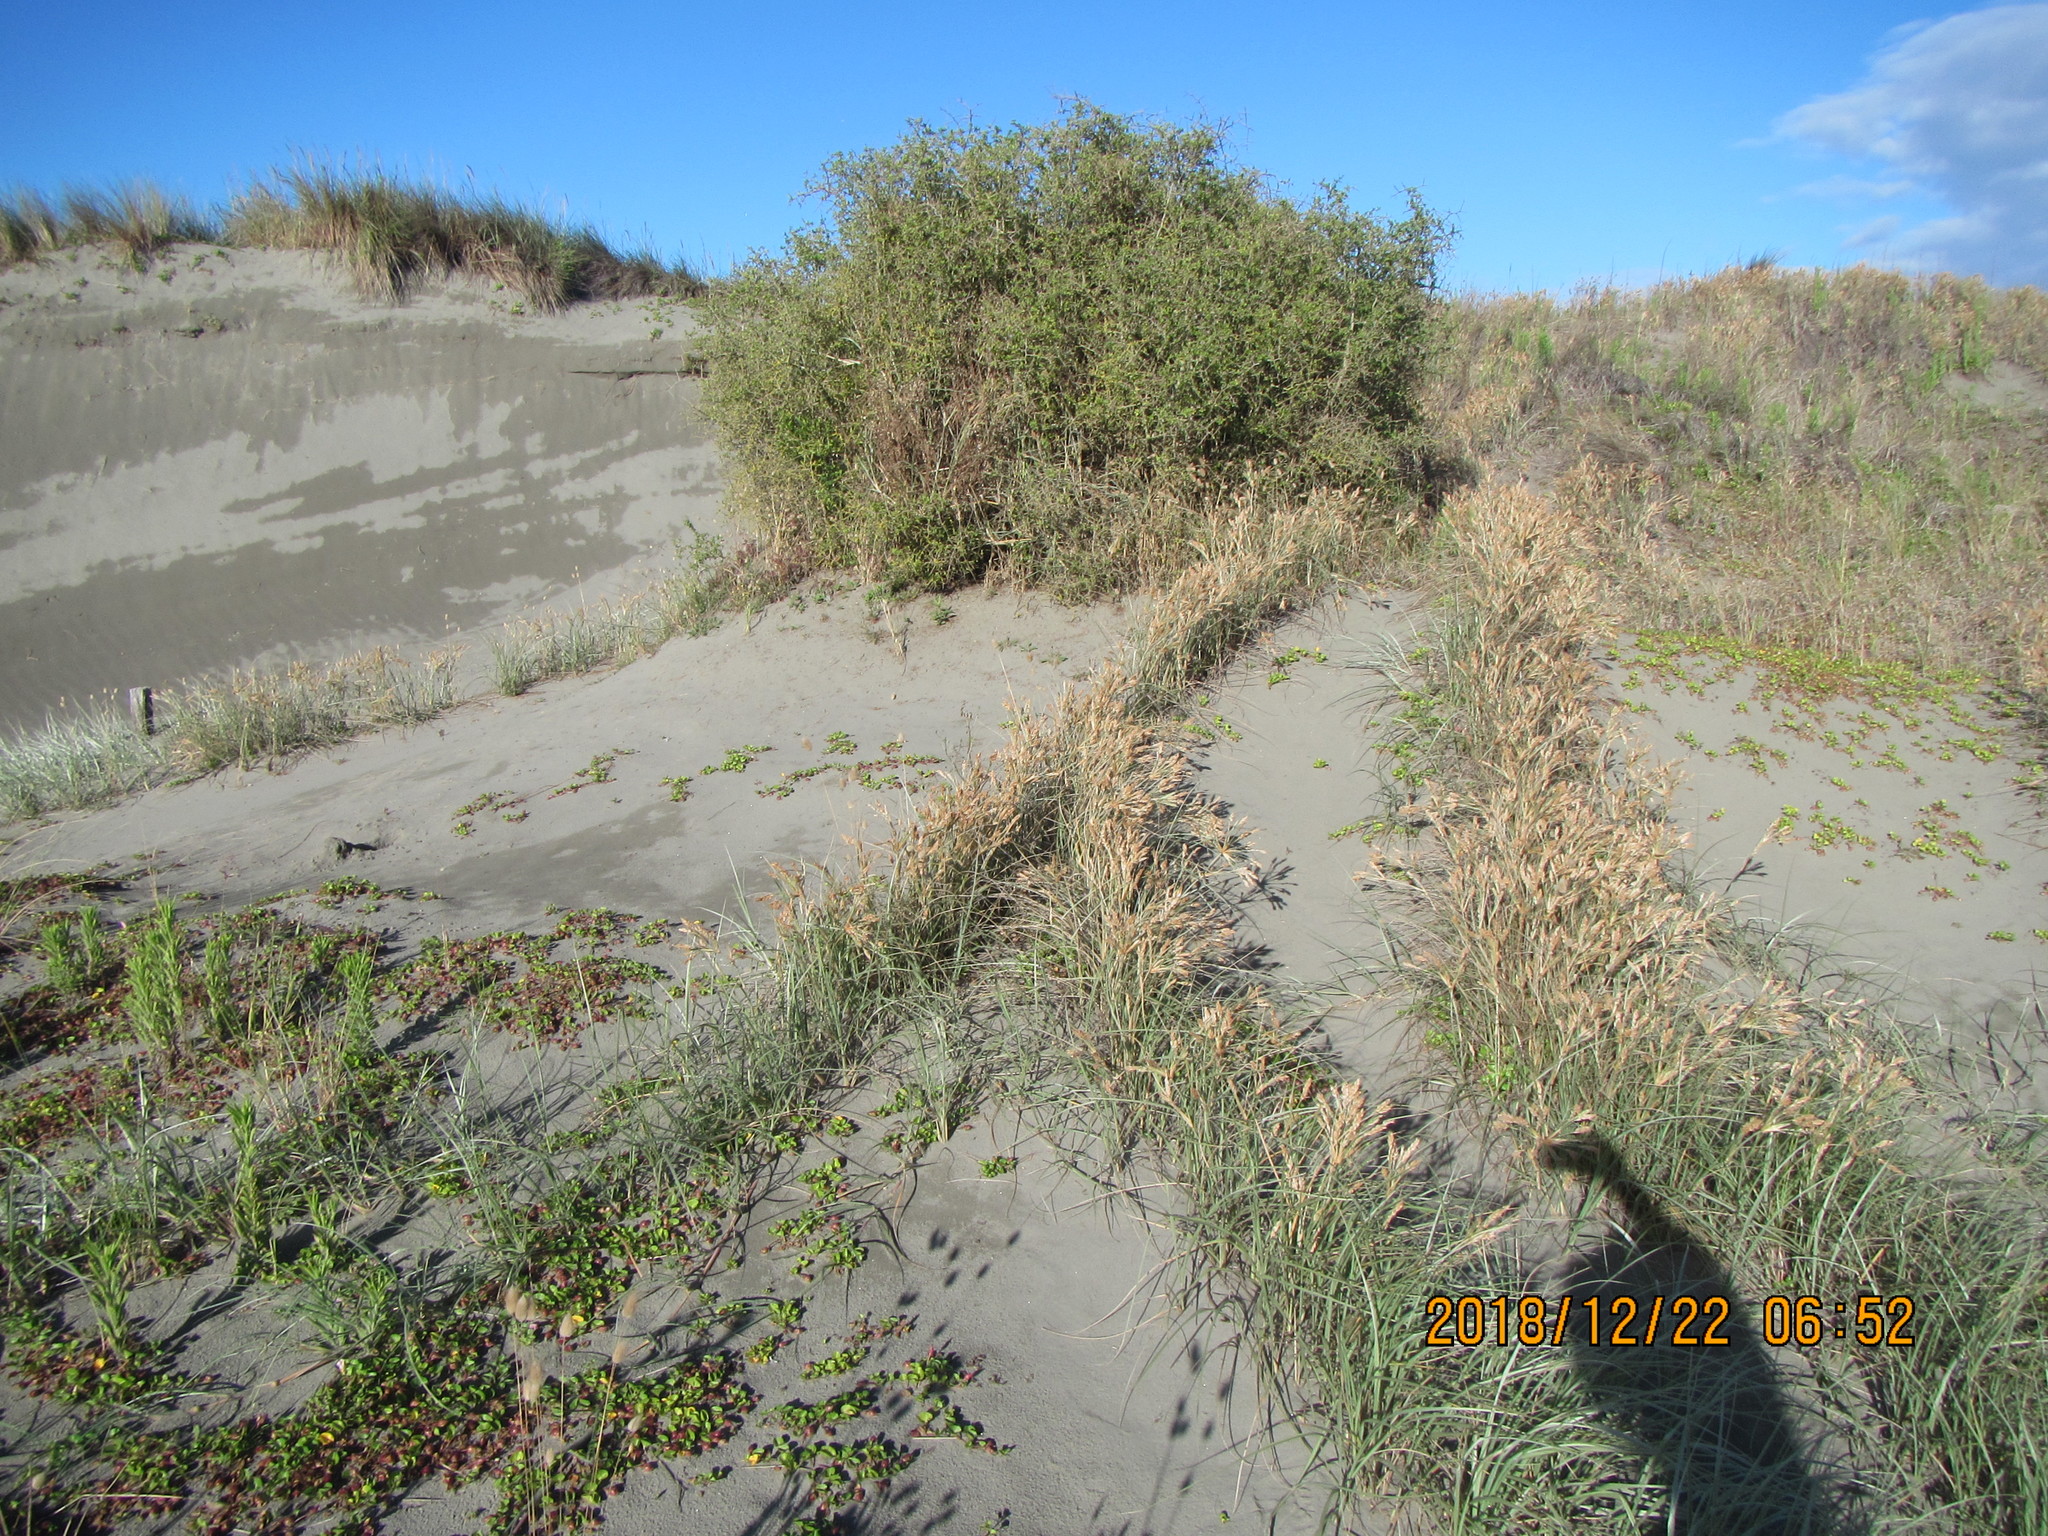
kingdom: Plantae
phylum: Tracheophyta
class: Magnoliopsida
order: Solanales
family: Solanaceae
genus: Lycium
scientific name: Lycium ferocissimum
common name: African boxthorn
